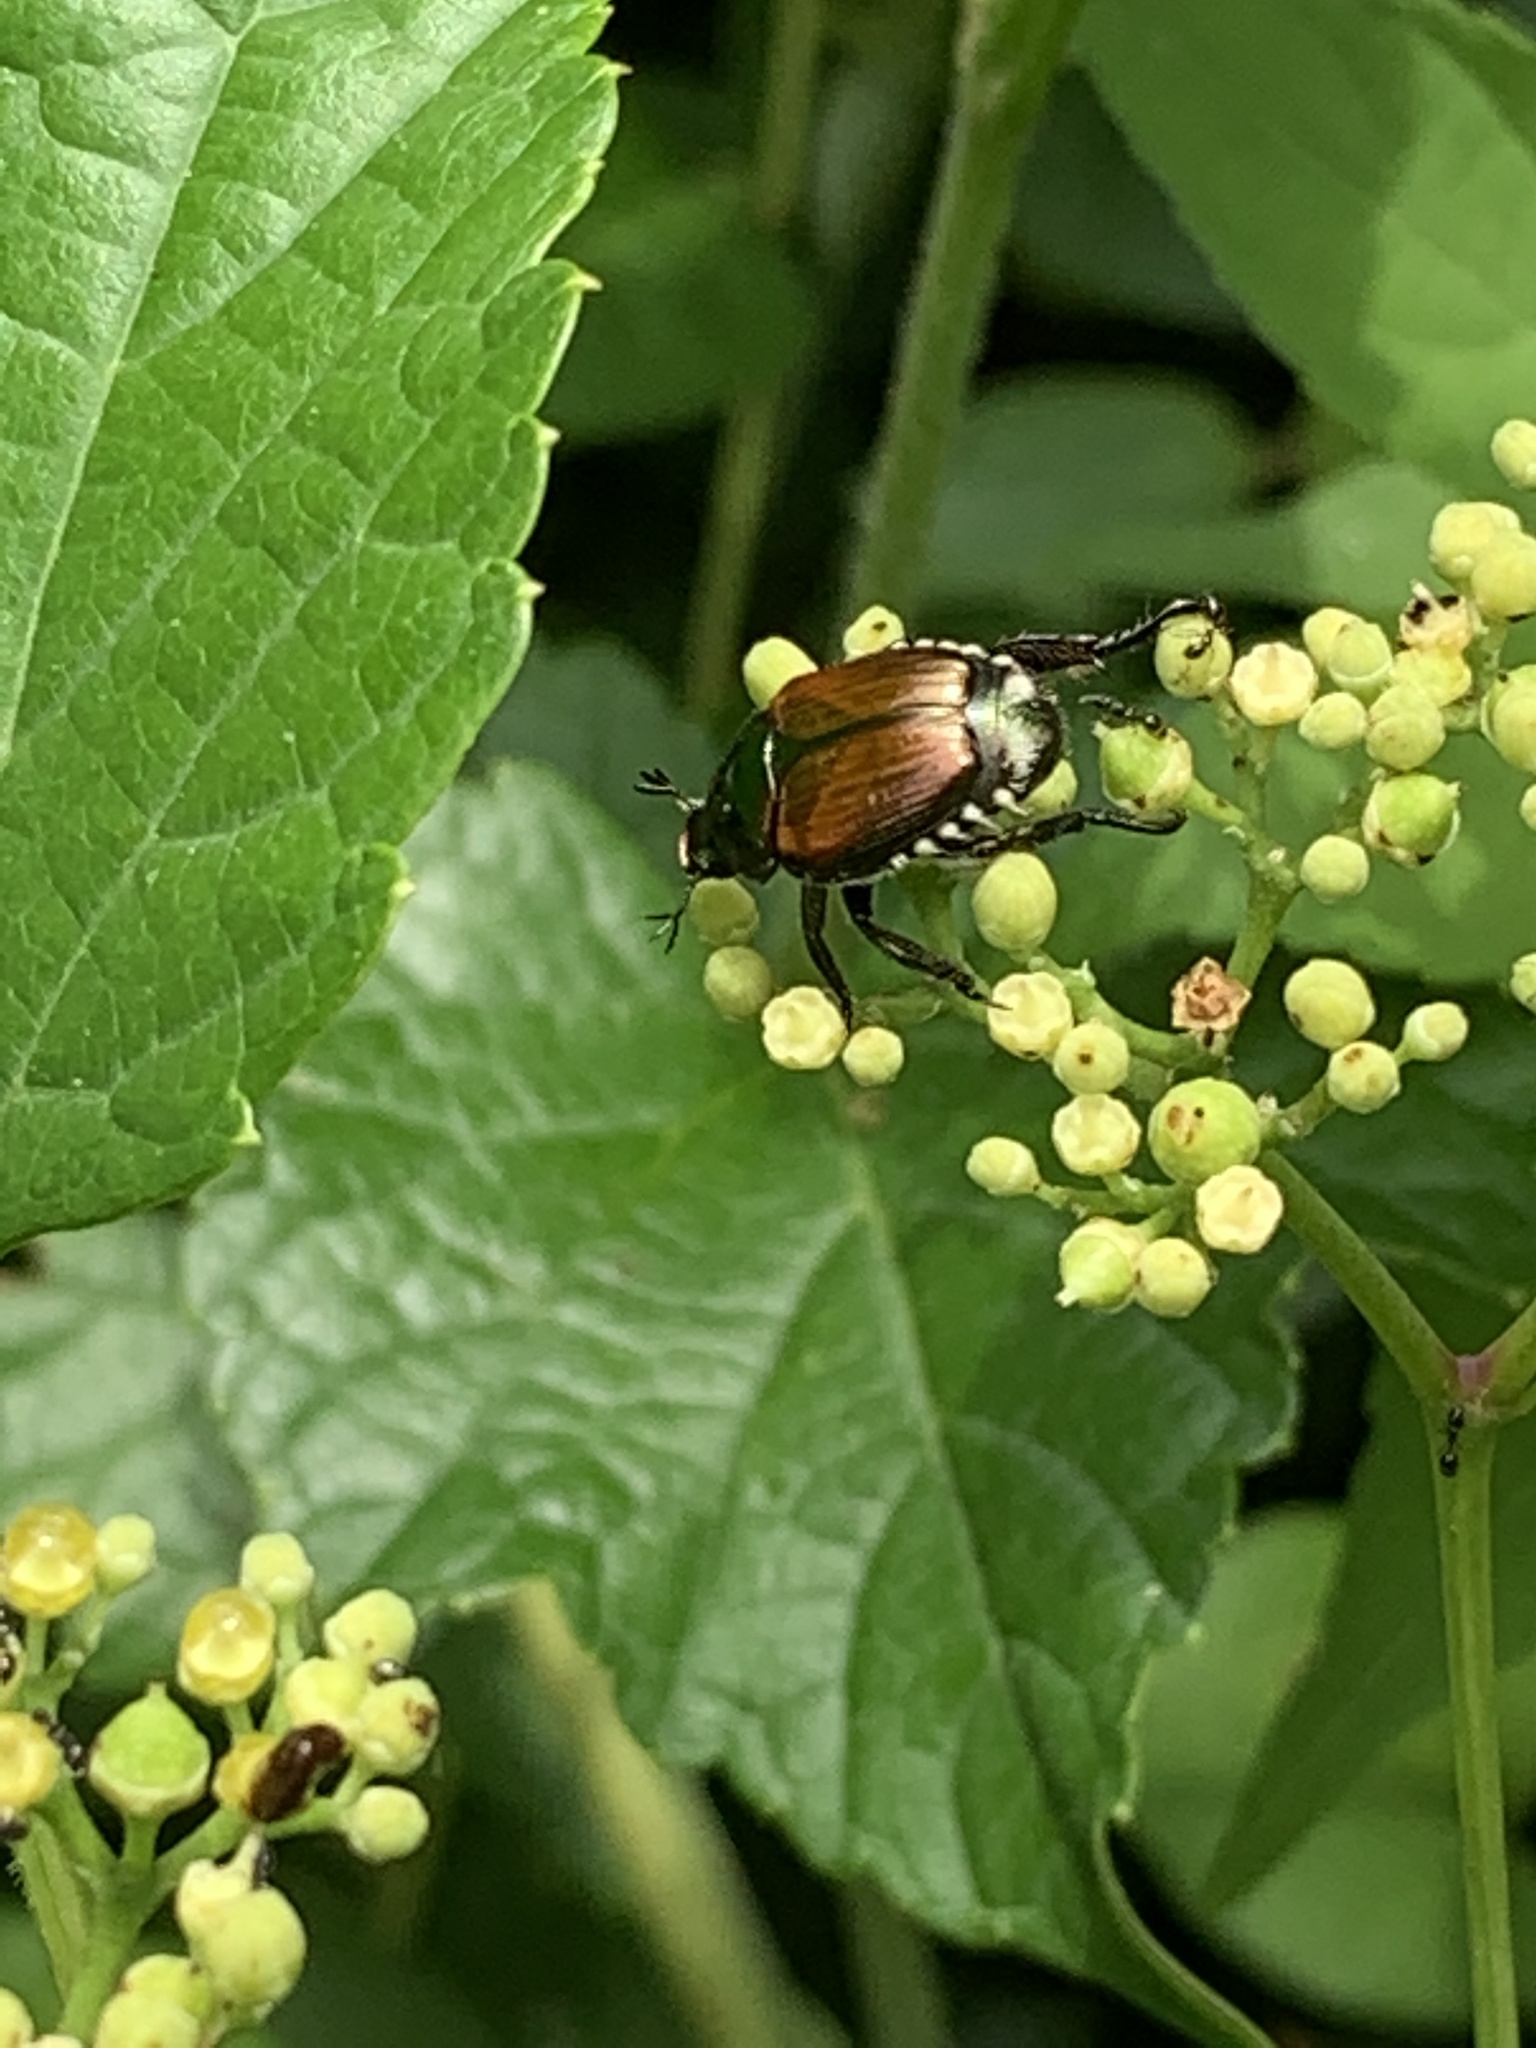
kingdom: Animalia
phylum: Arthropoda
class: Insecta
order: Coleoptera
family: Scarabaeidae
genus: Popillia
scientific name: Popillia japonica
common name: Japanese beetle
